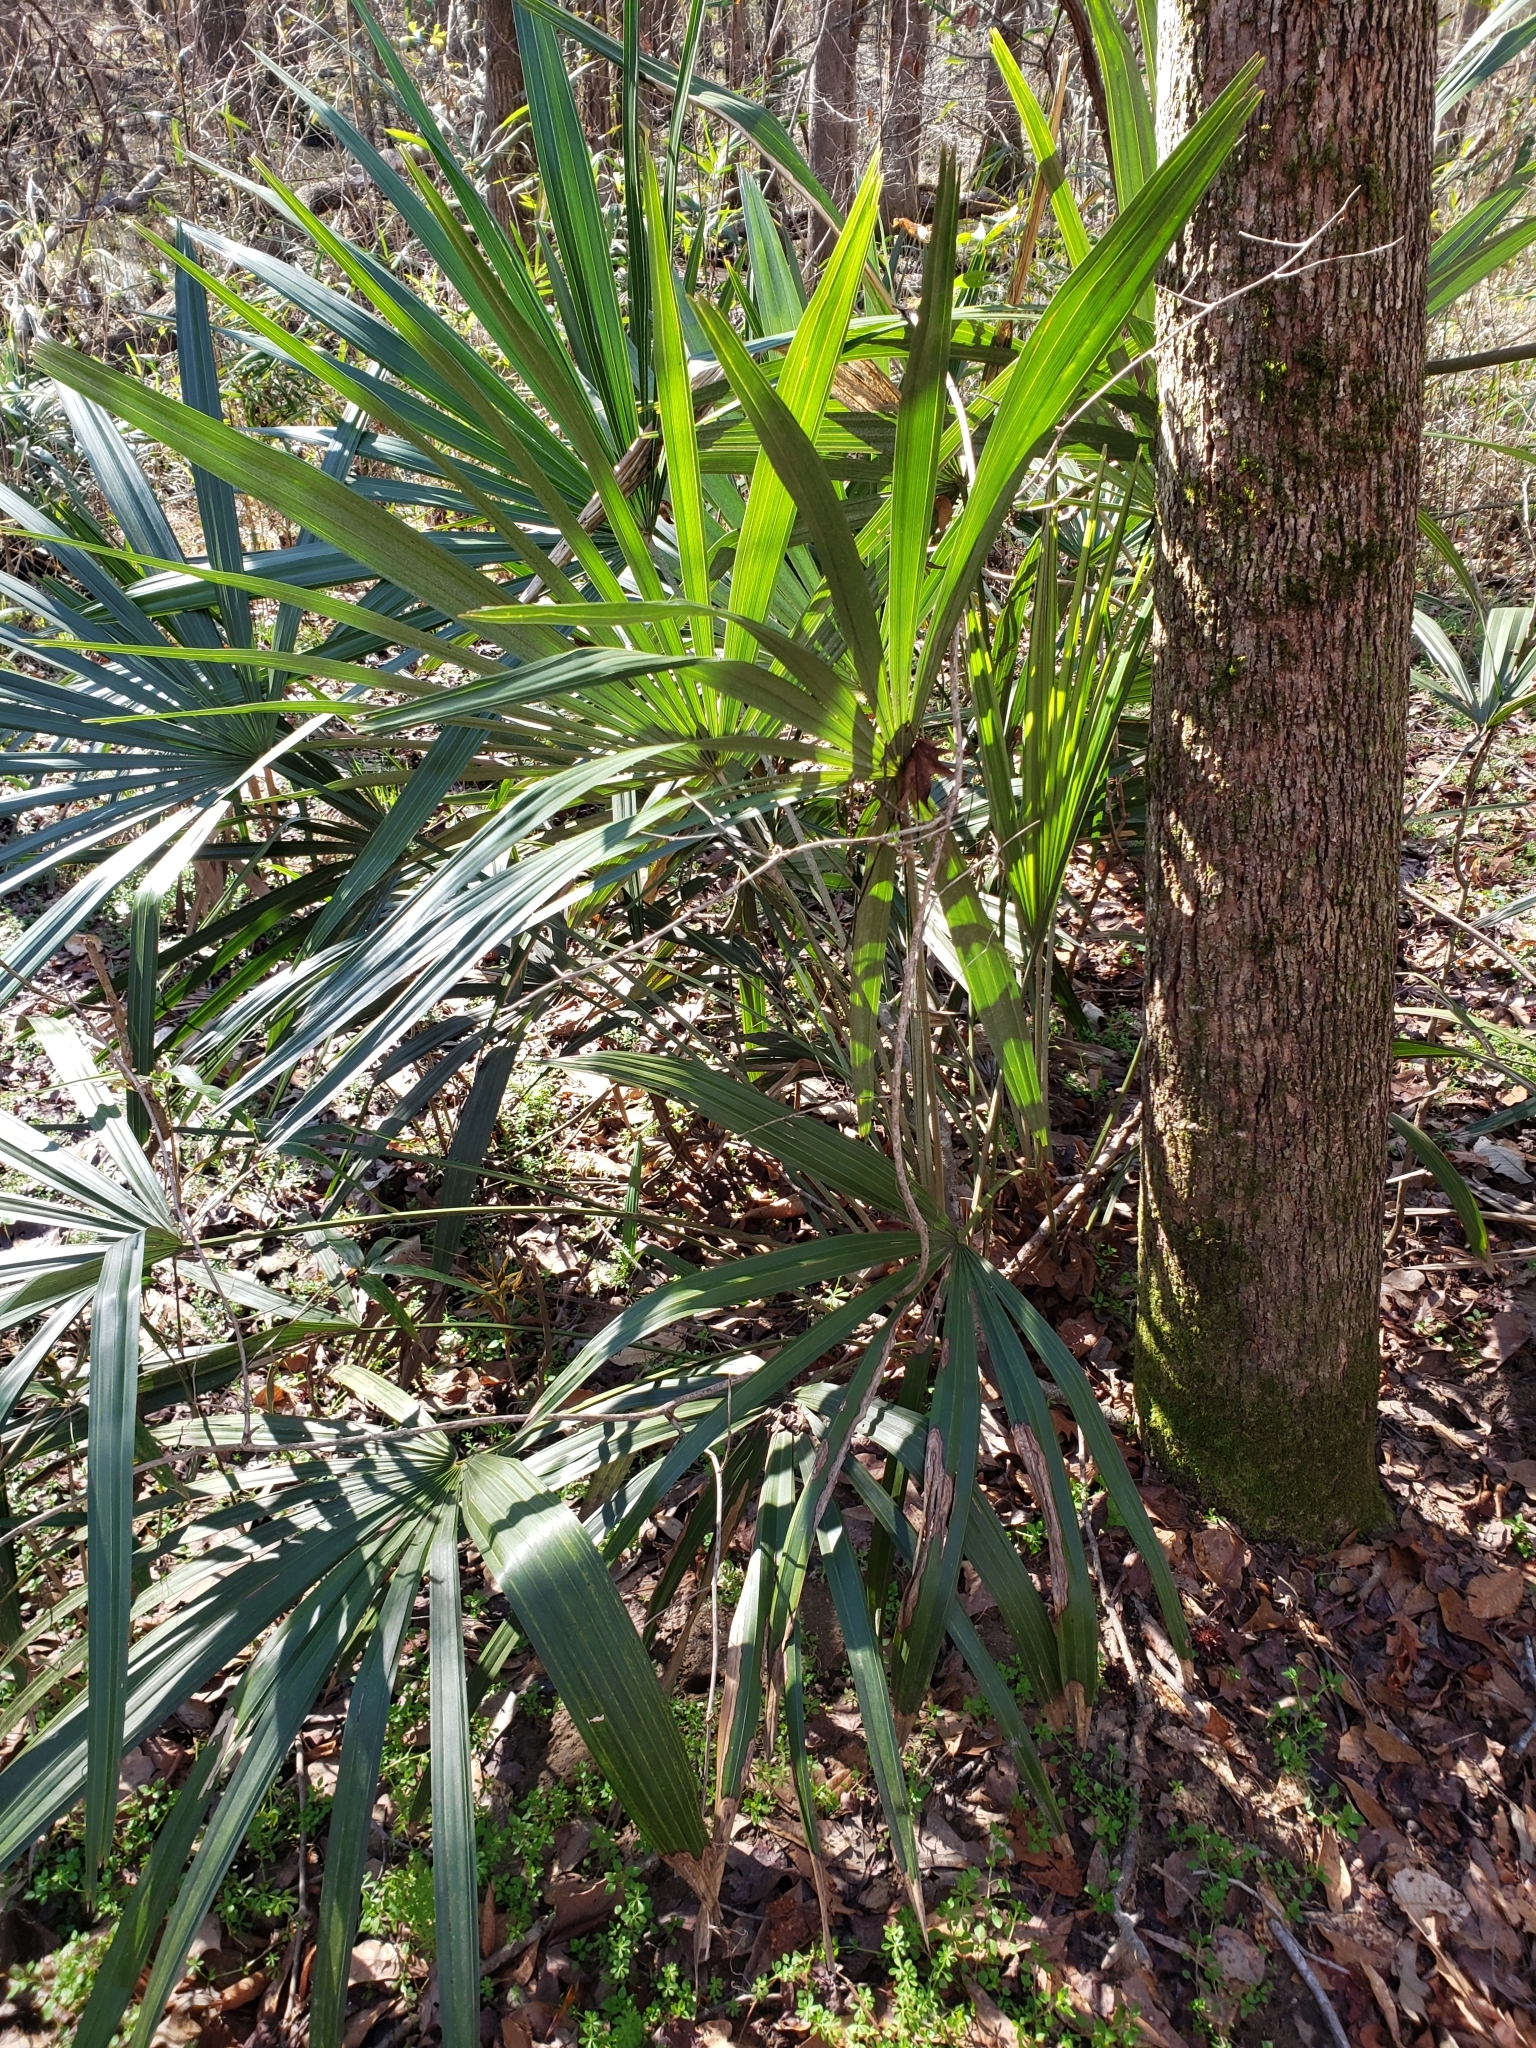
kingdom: Plantae
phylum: Tracheophyta
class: Liliopsida
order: Arecales
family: Arecaceae
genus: Rhapidophyllum
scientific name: Rhapidophyllum hystrix
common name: Porcupine palm
